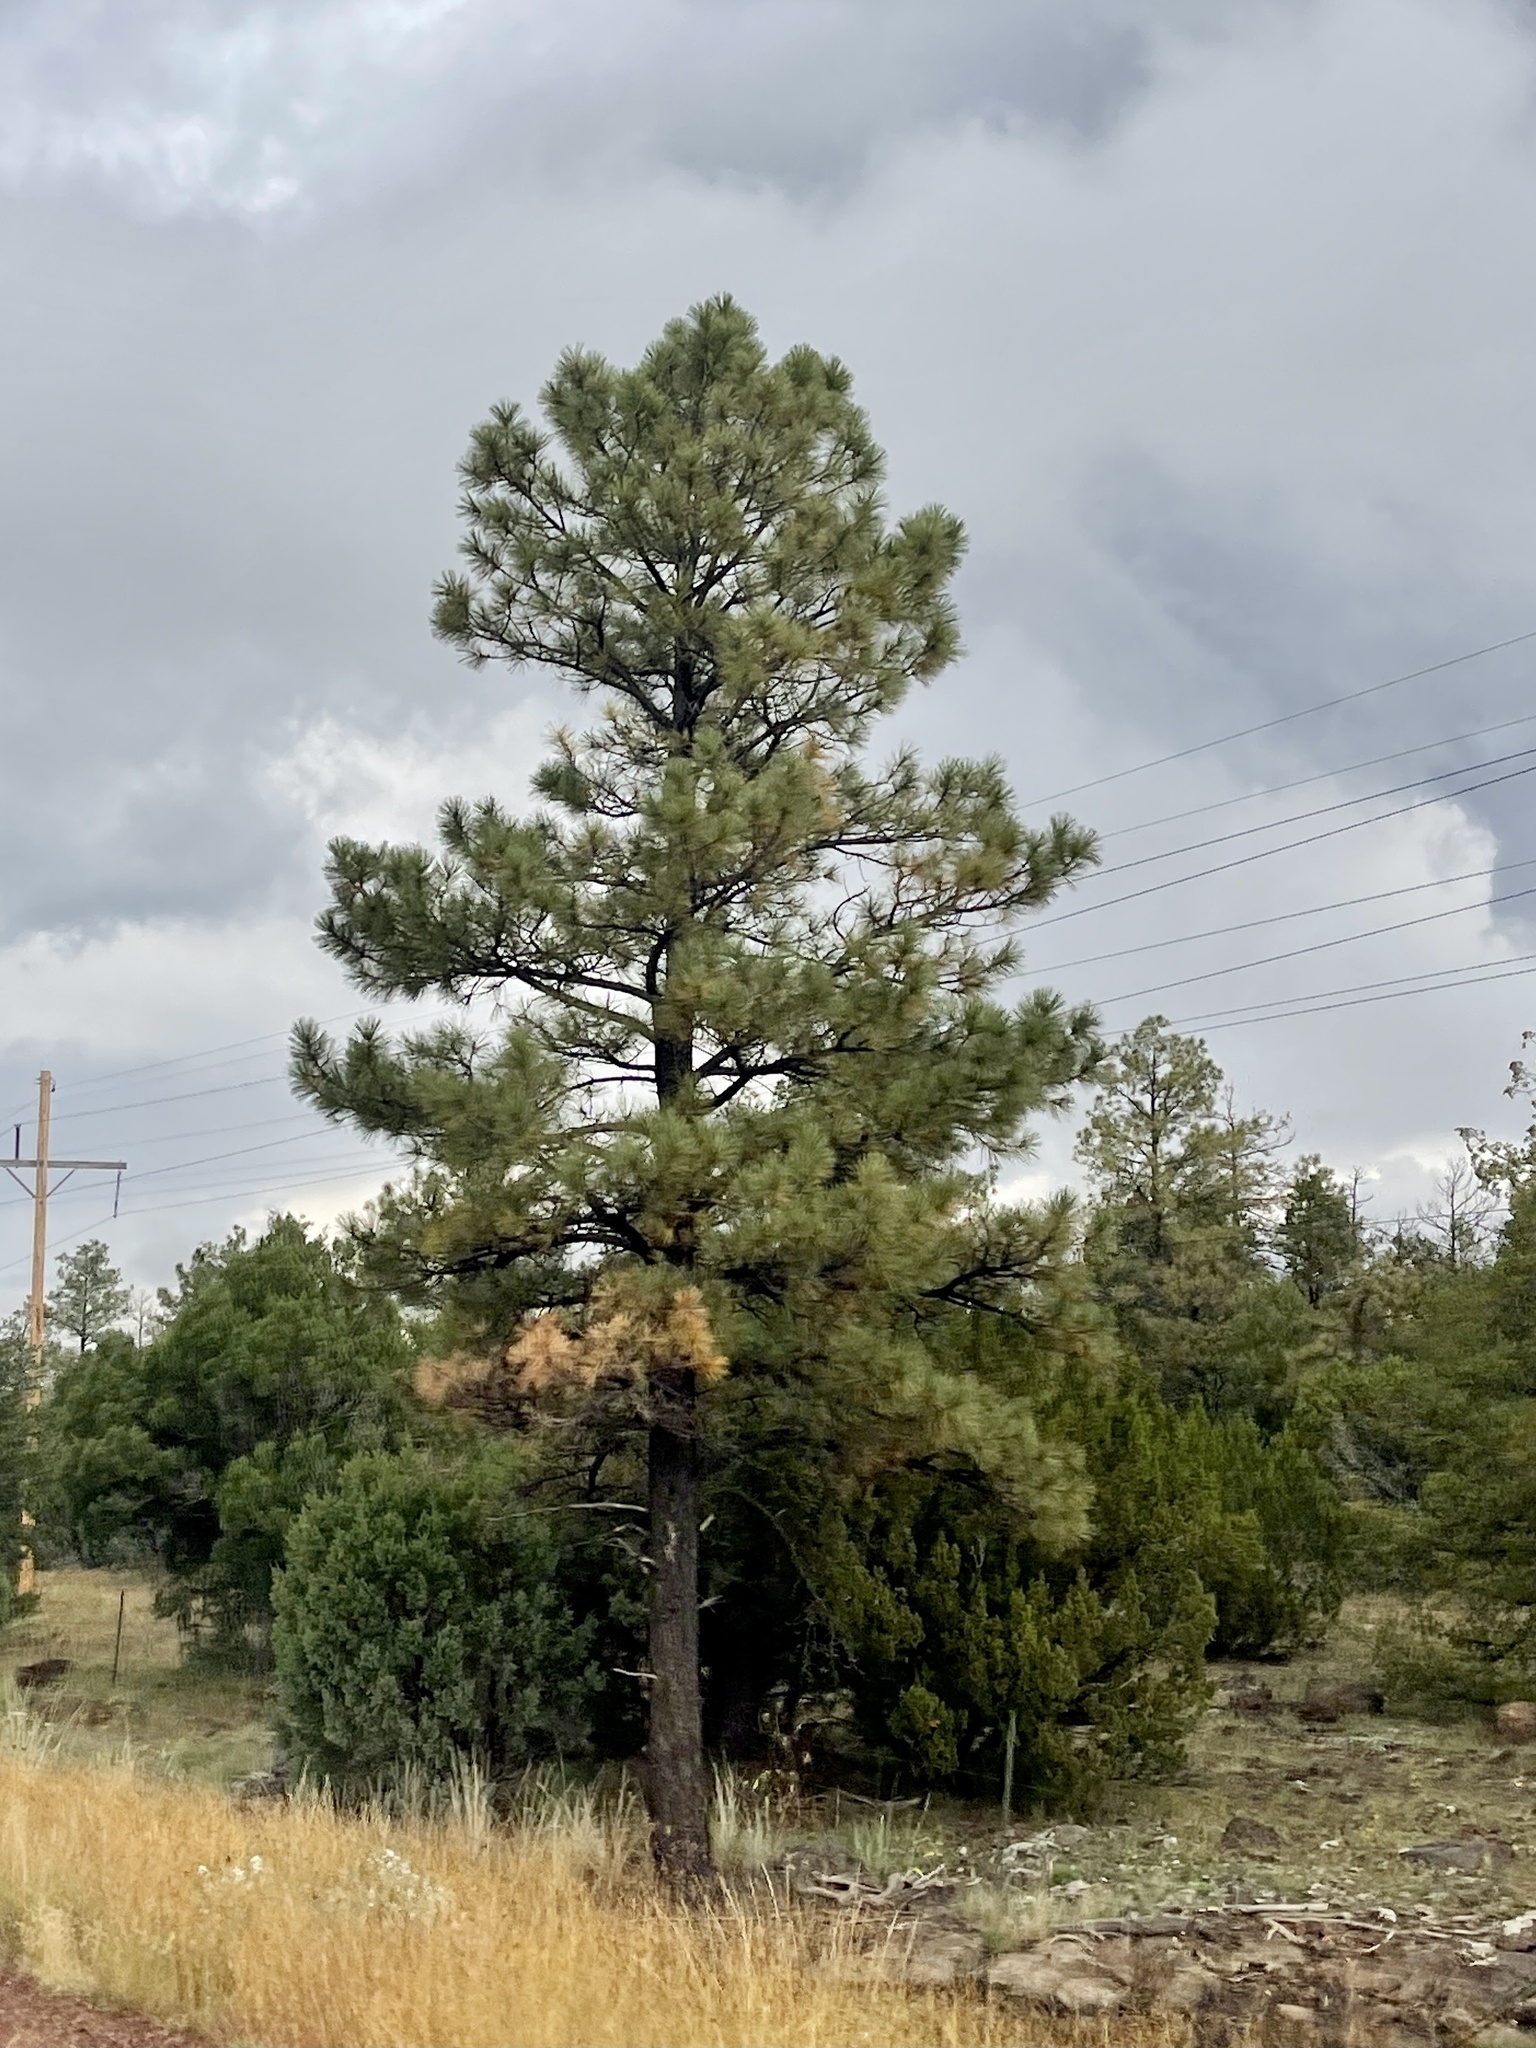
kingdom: Plantae
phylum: Tracheophyta
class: Pinopsida
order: Pinales
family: Pinaceae
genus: Pinus
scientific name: Pinus ponderosa
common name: Western yellow-pine
